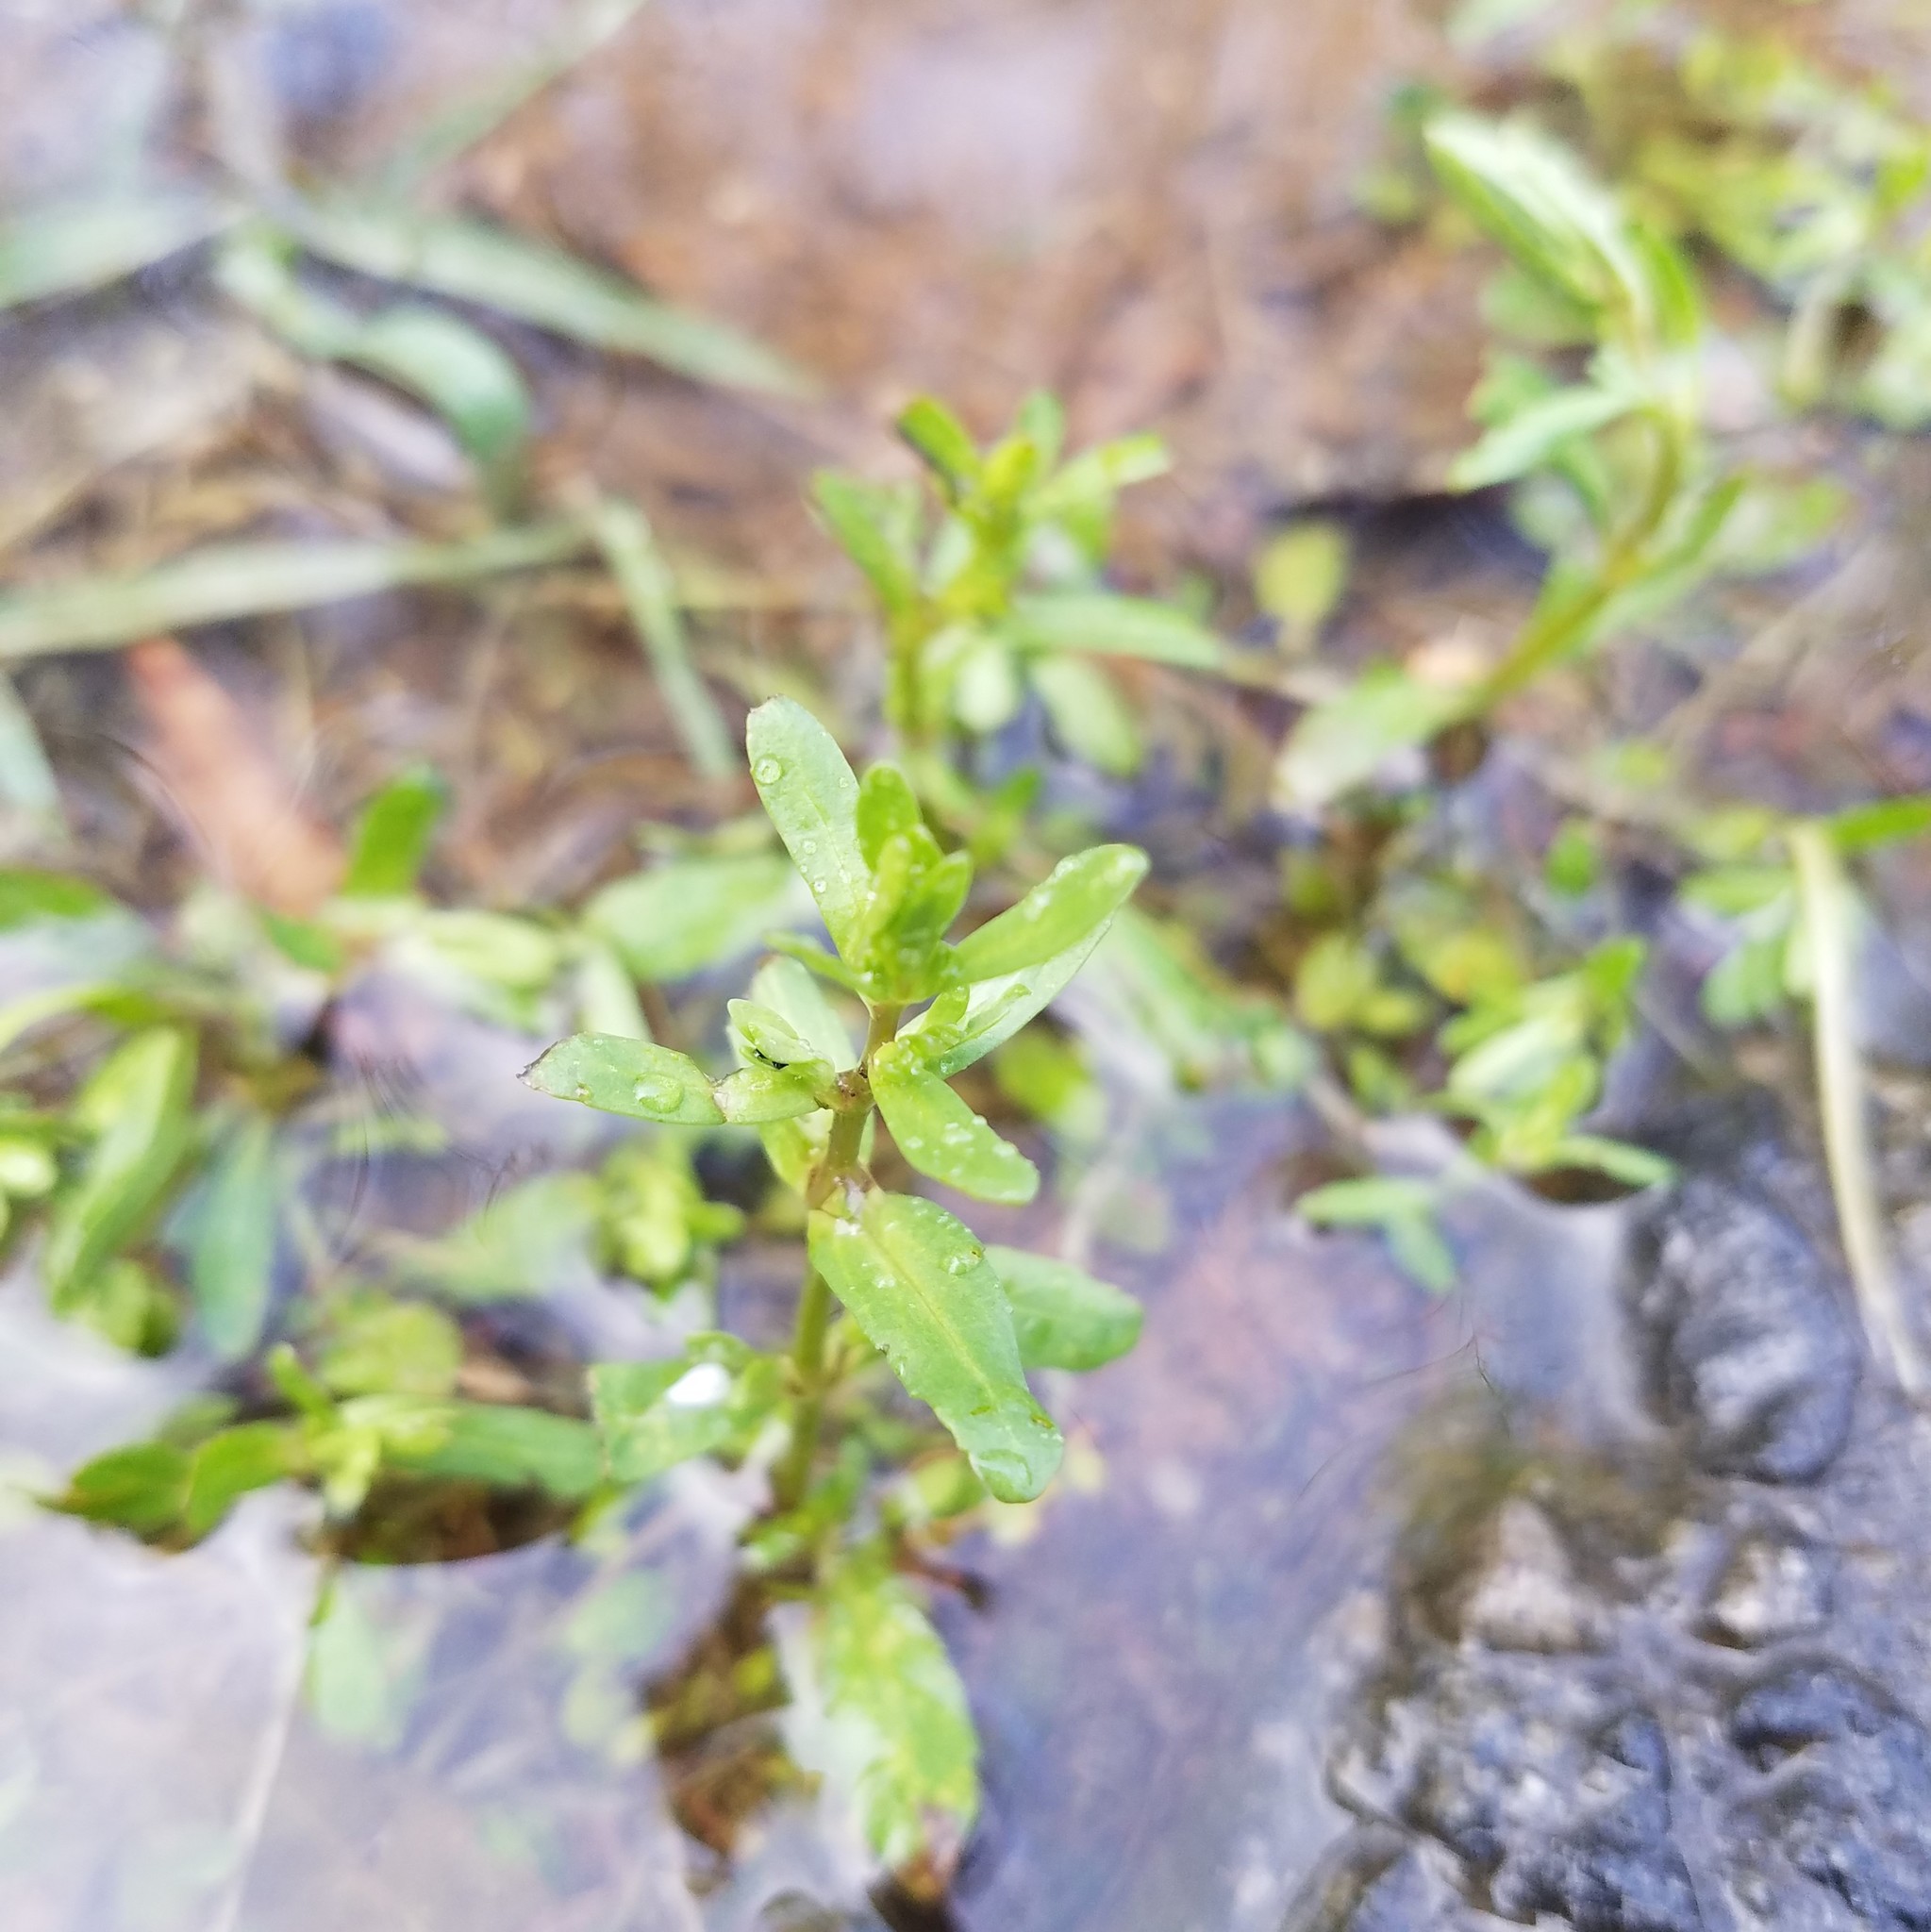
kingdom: Plantae
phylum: Tracheophyta
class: Magnoliopsida
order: Lamiales
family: Plantaginaceae
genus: Veronica
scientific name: Veronica peregrina
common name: Neckweed
